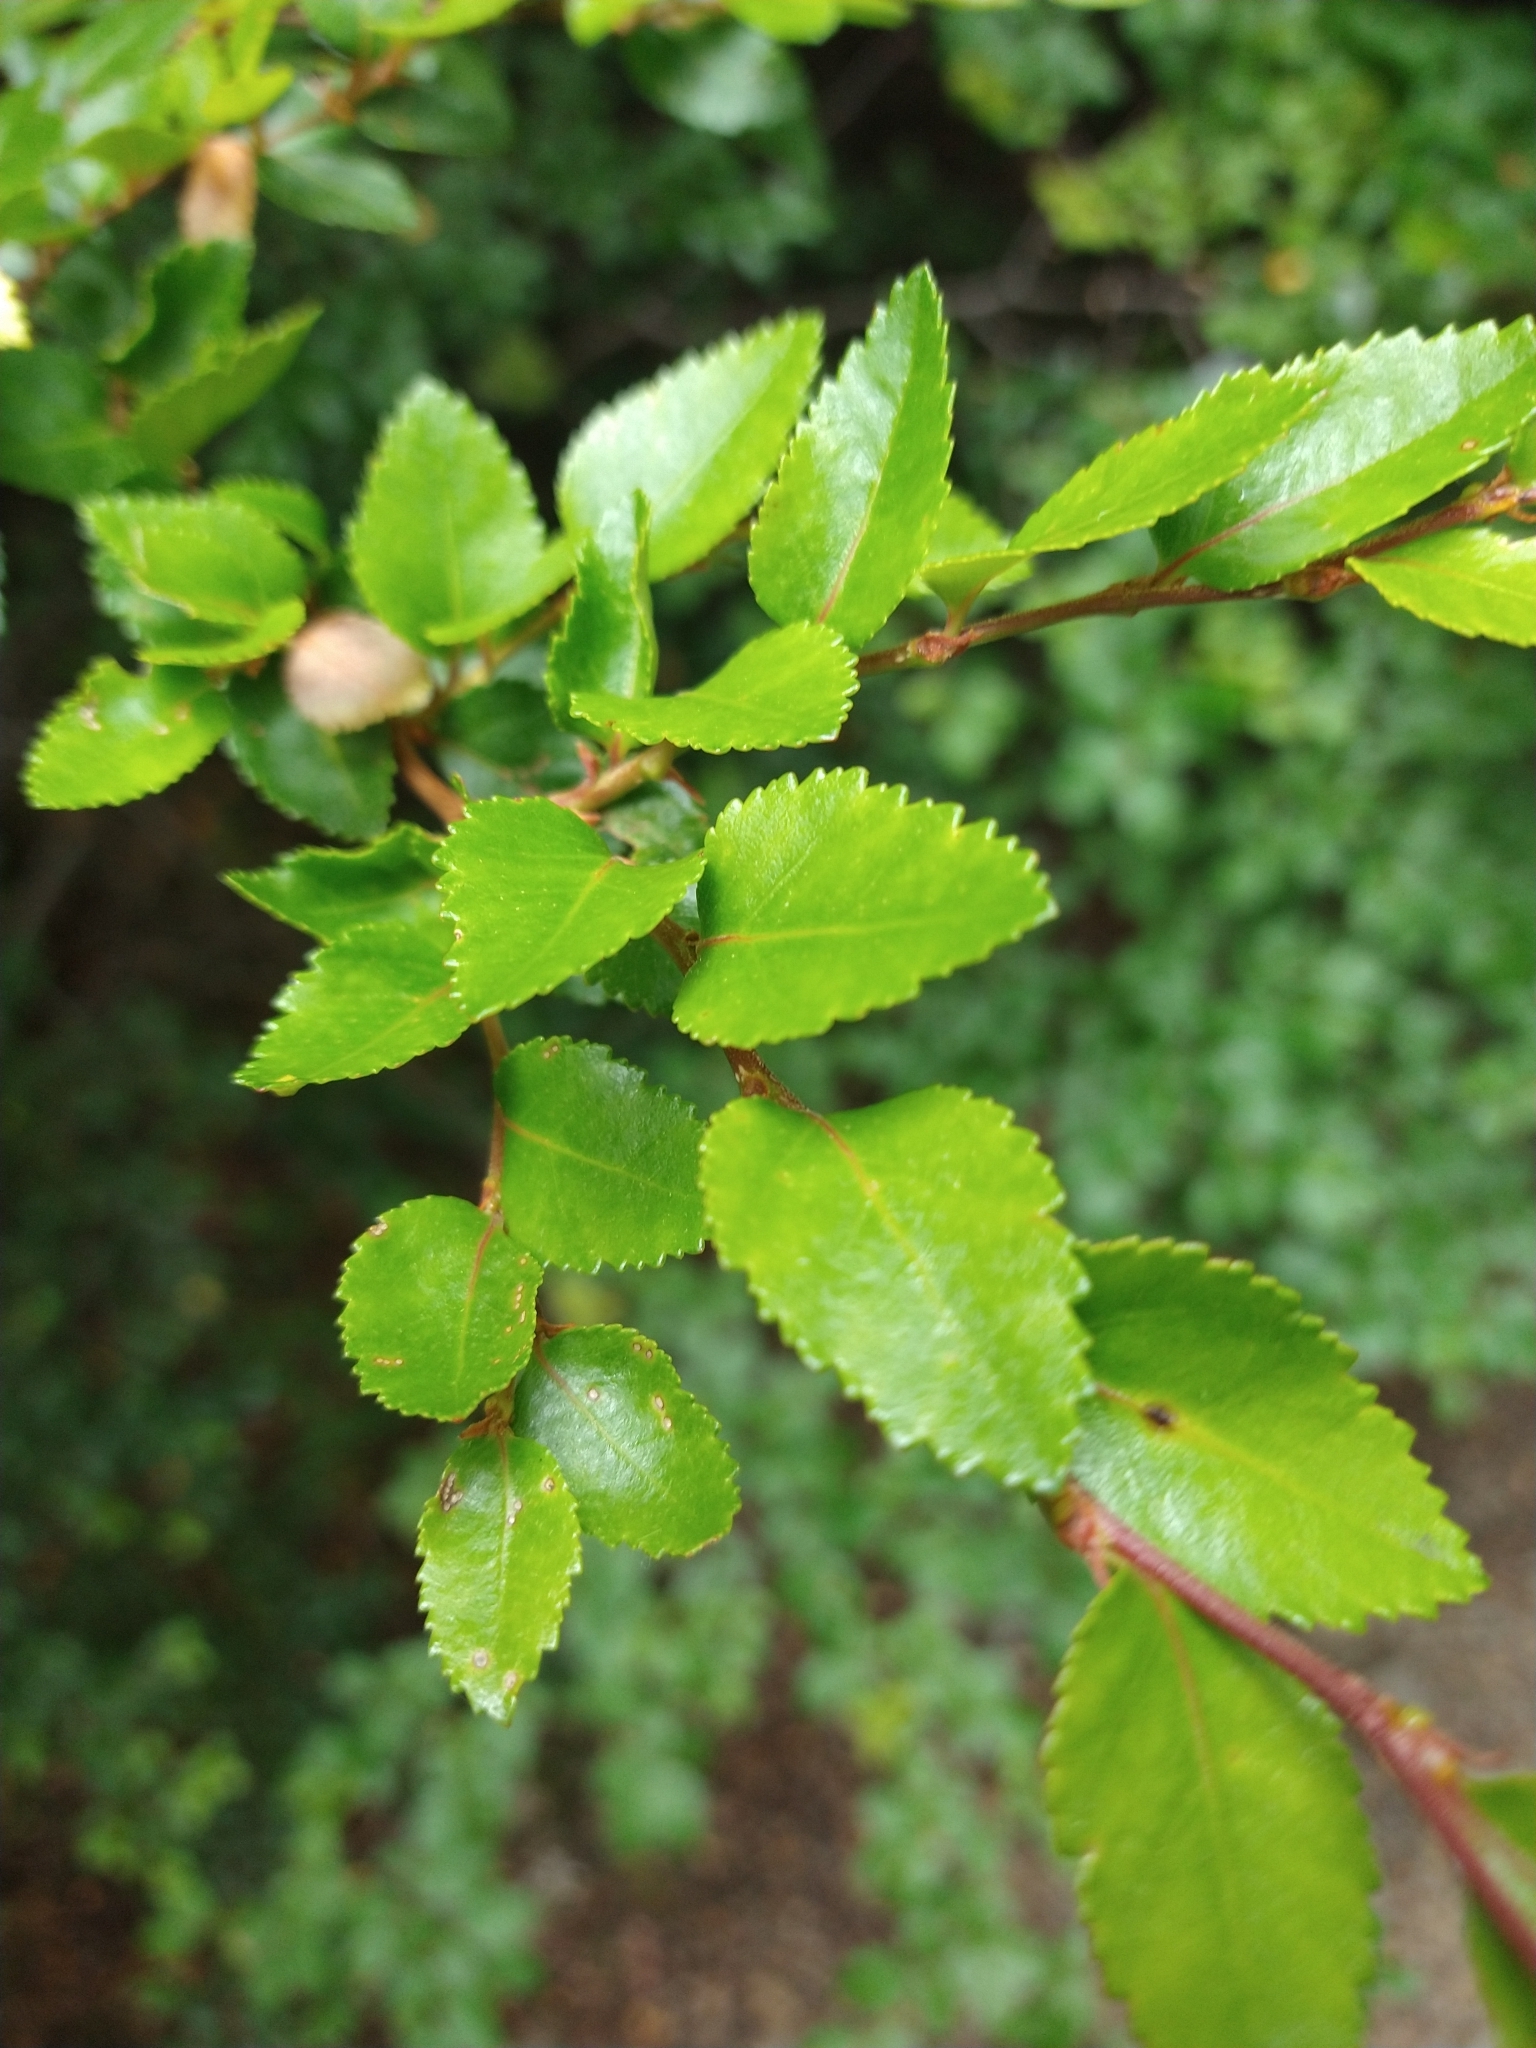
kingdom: Plantae
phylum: Tracheophyta
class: Magnoliopsida
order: Fagales
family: Nothofagaceae
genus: Nothofagus
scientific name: Nothofagus betuloides
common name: Magellan's beech
